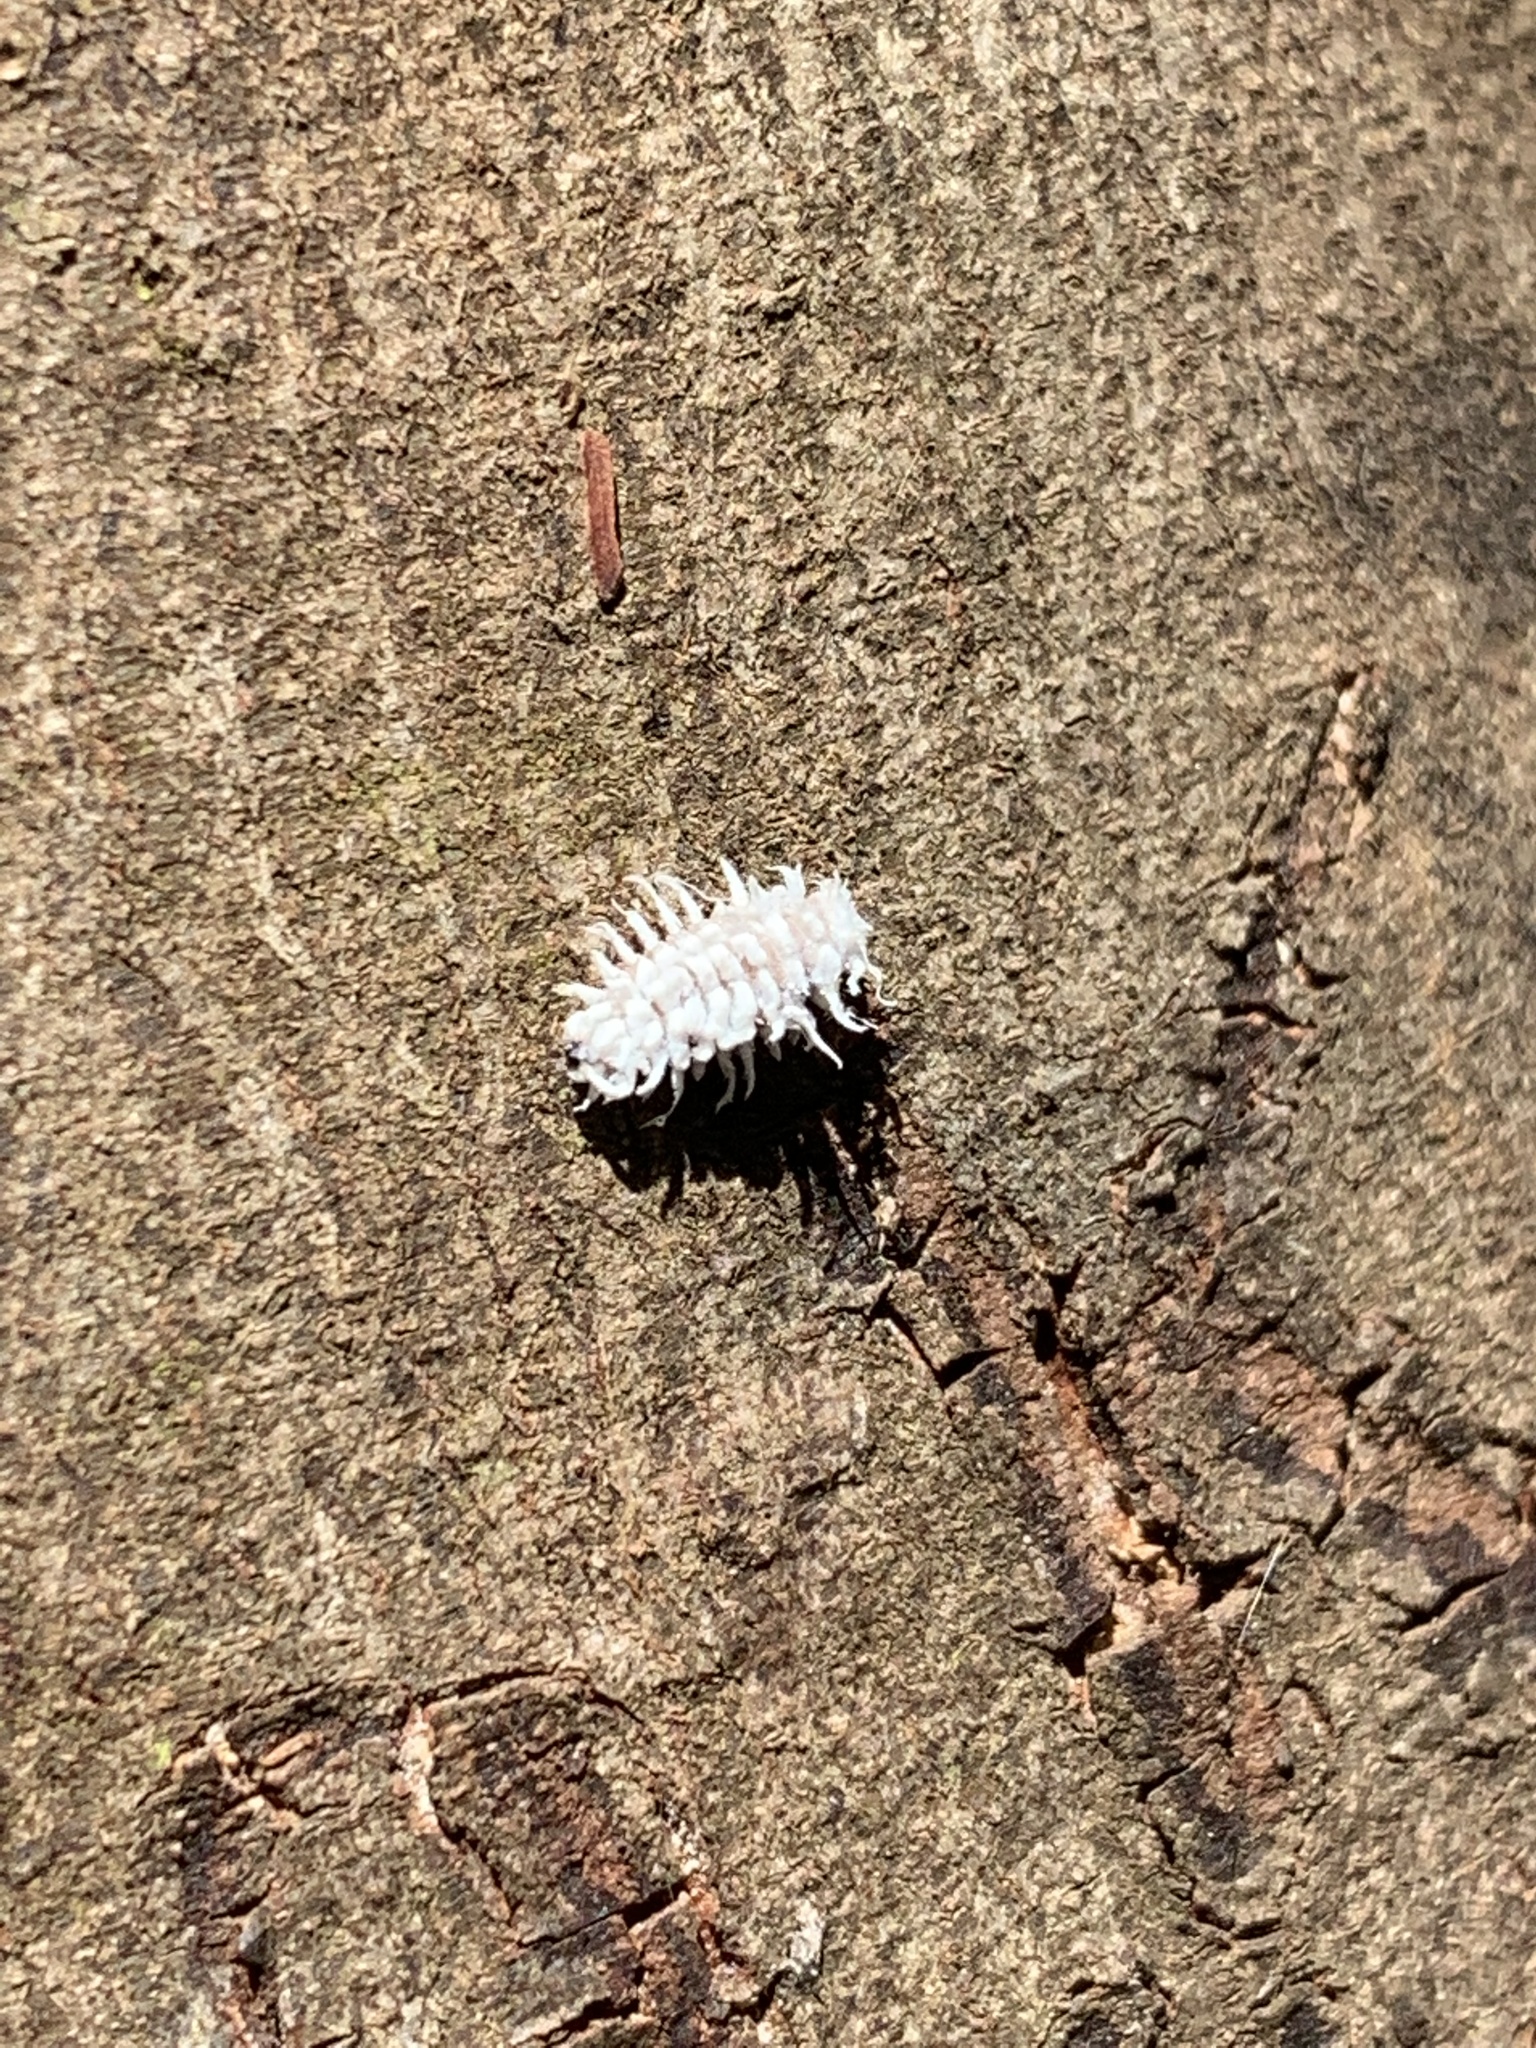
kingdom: Animalia
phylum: Arthropoda
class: Insecta
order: Coleoptera
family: Coccinellidae
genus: Cryptolaemus
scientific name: Cryptolaemus montrouzieri
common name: Mealybug destroyer
